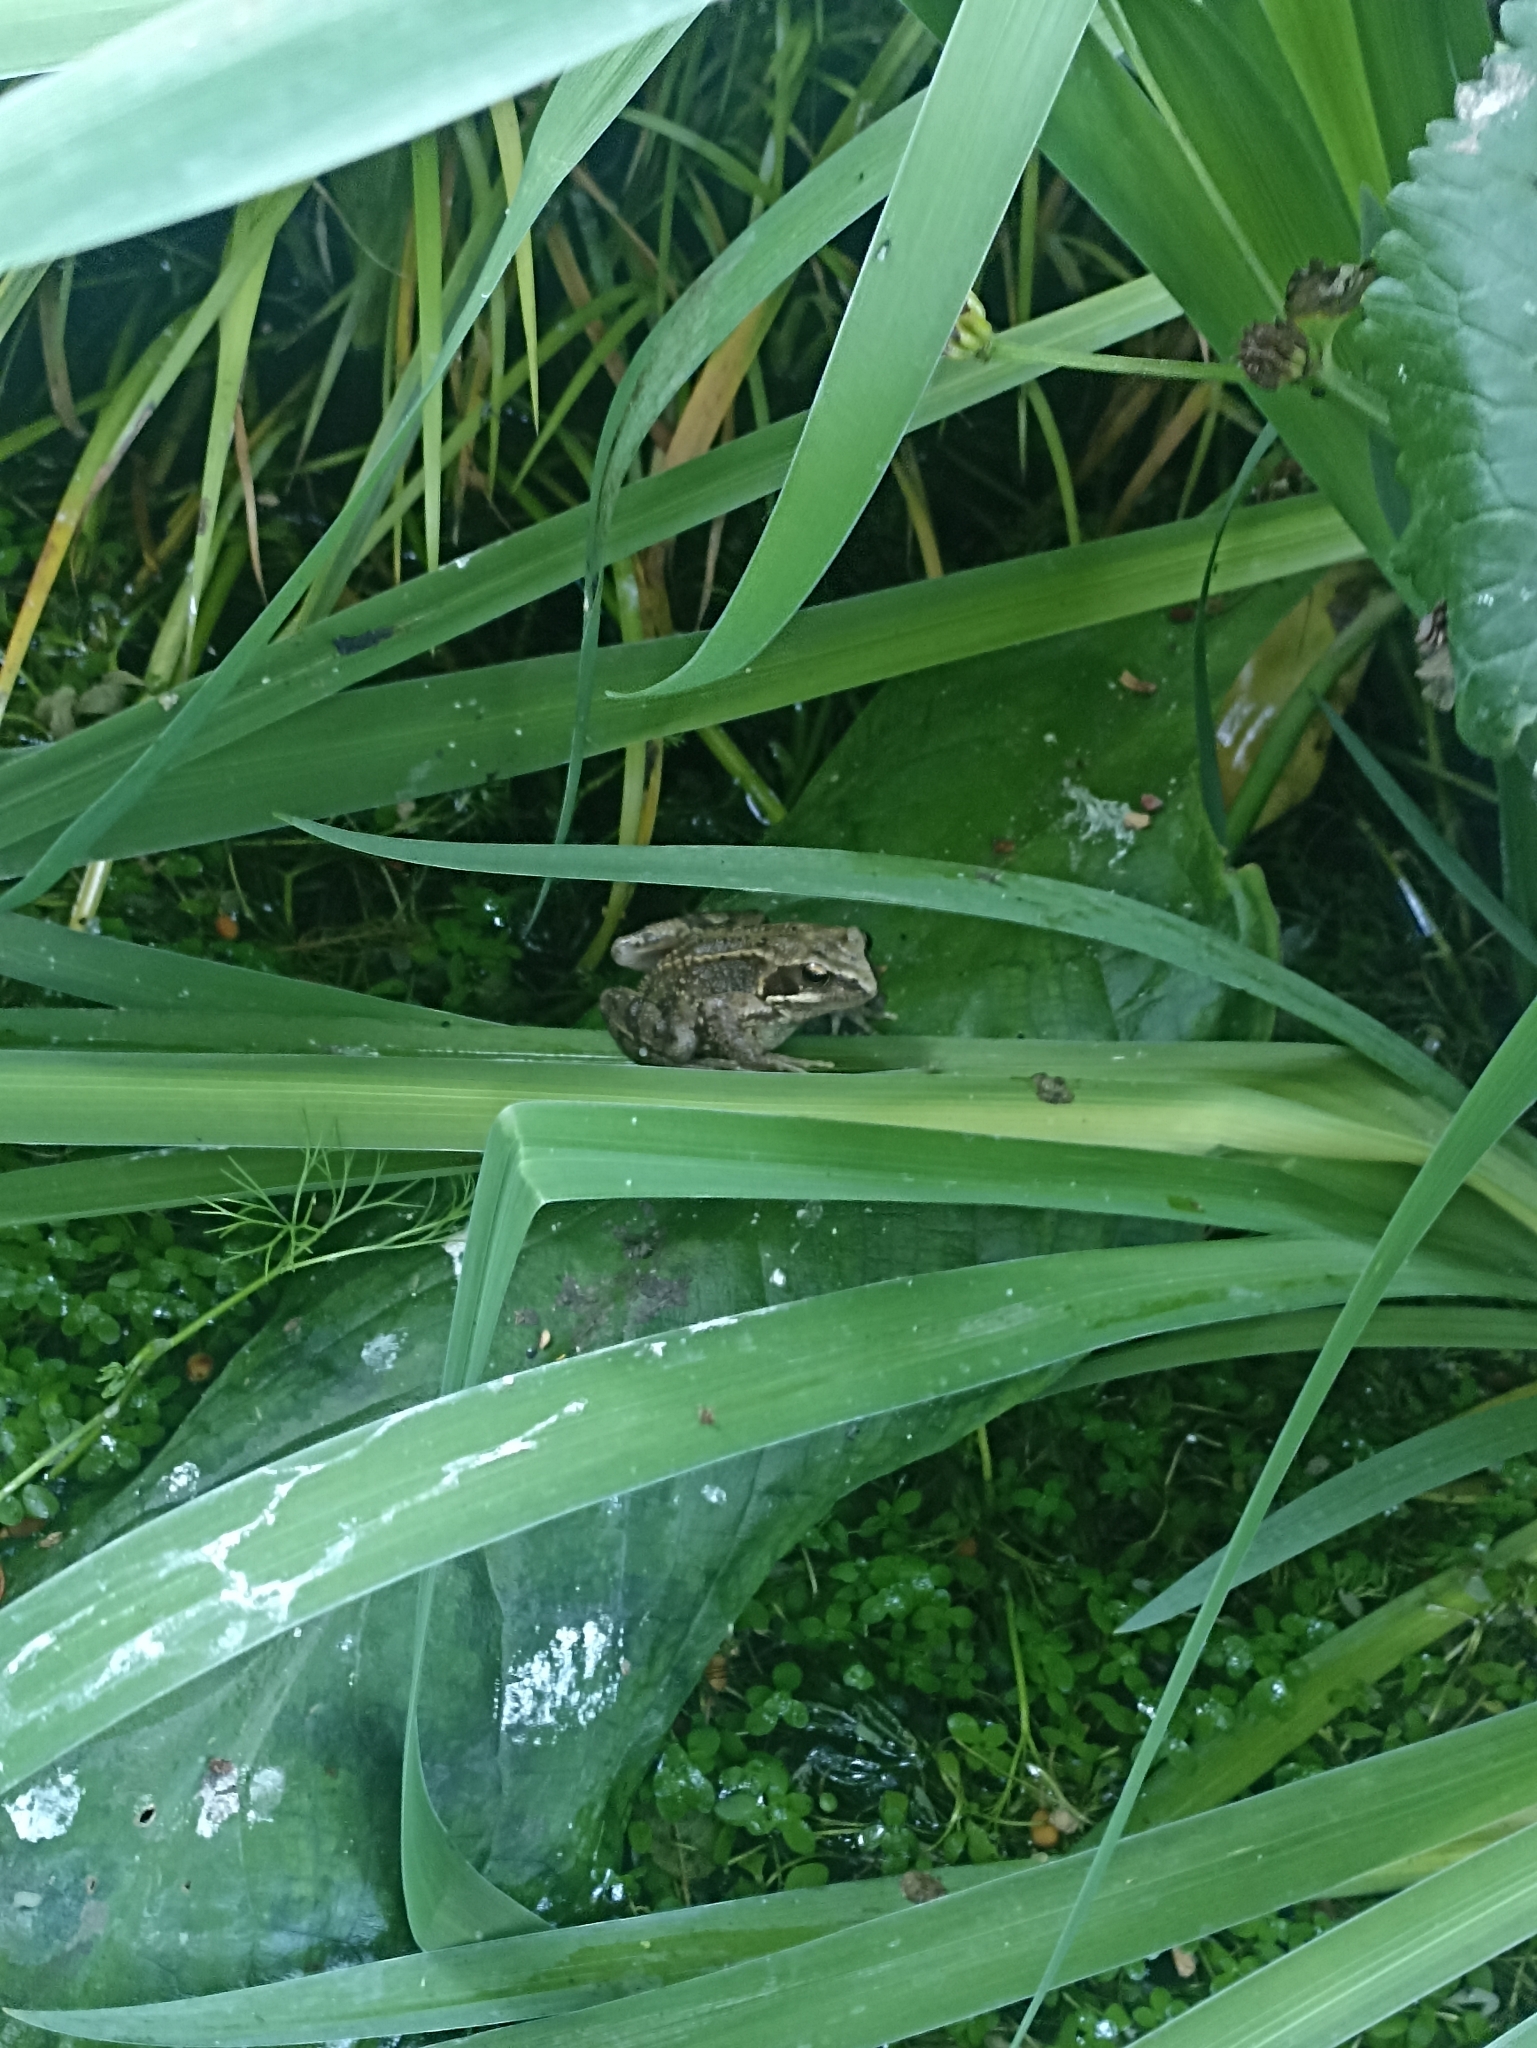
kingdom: Animalia
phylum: Chordata
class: Amphibia
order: Anura
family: Ranidae
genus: Rana
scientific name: Rana temporaria
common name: Common frog
